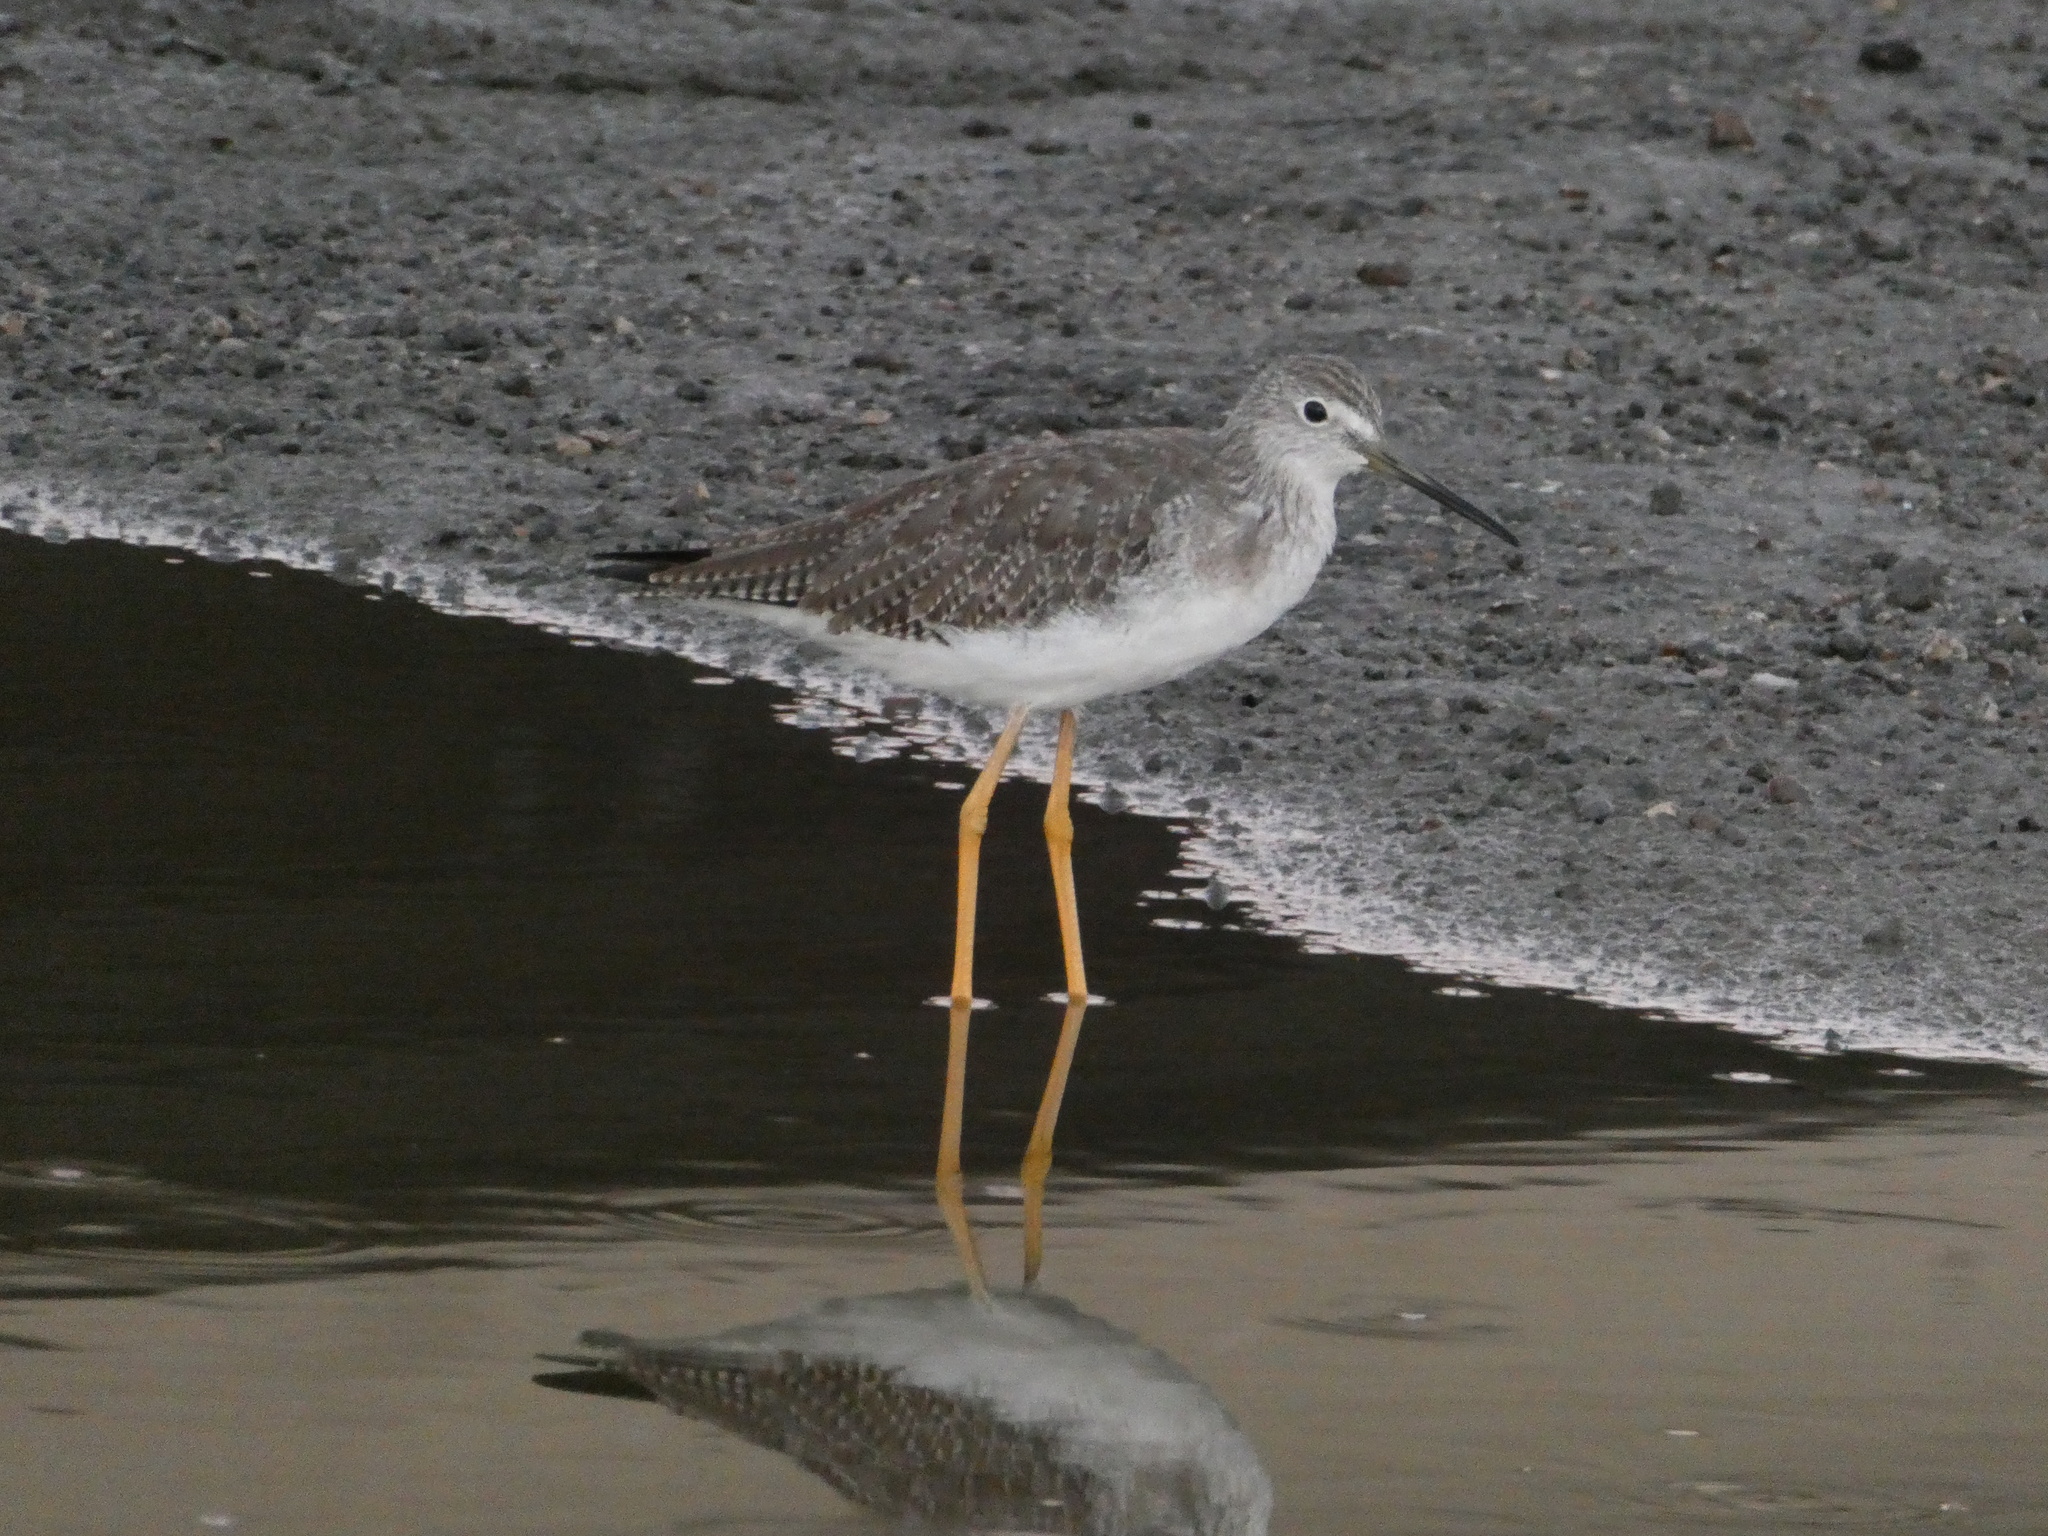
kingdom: Animalia
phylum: Chordata
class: Aves
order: Charadriiformes
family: Scolopacidae
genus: Tringa
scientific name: Tringa melanoleuca
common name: Greater yellowlegs
